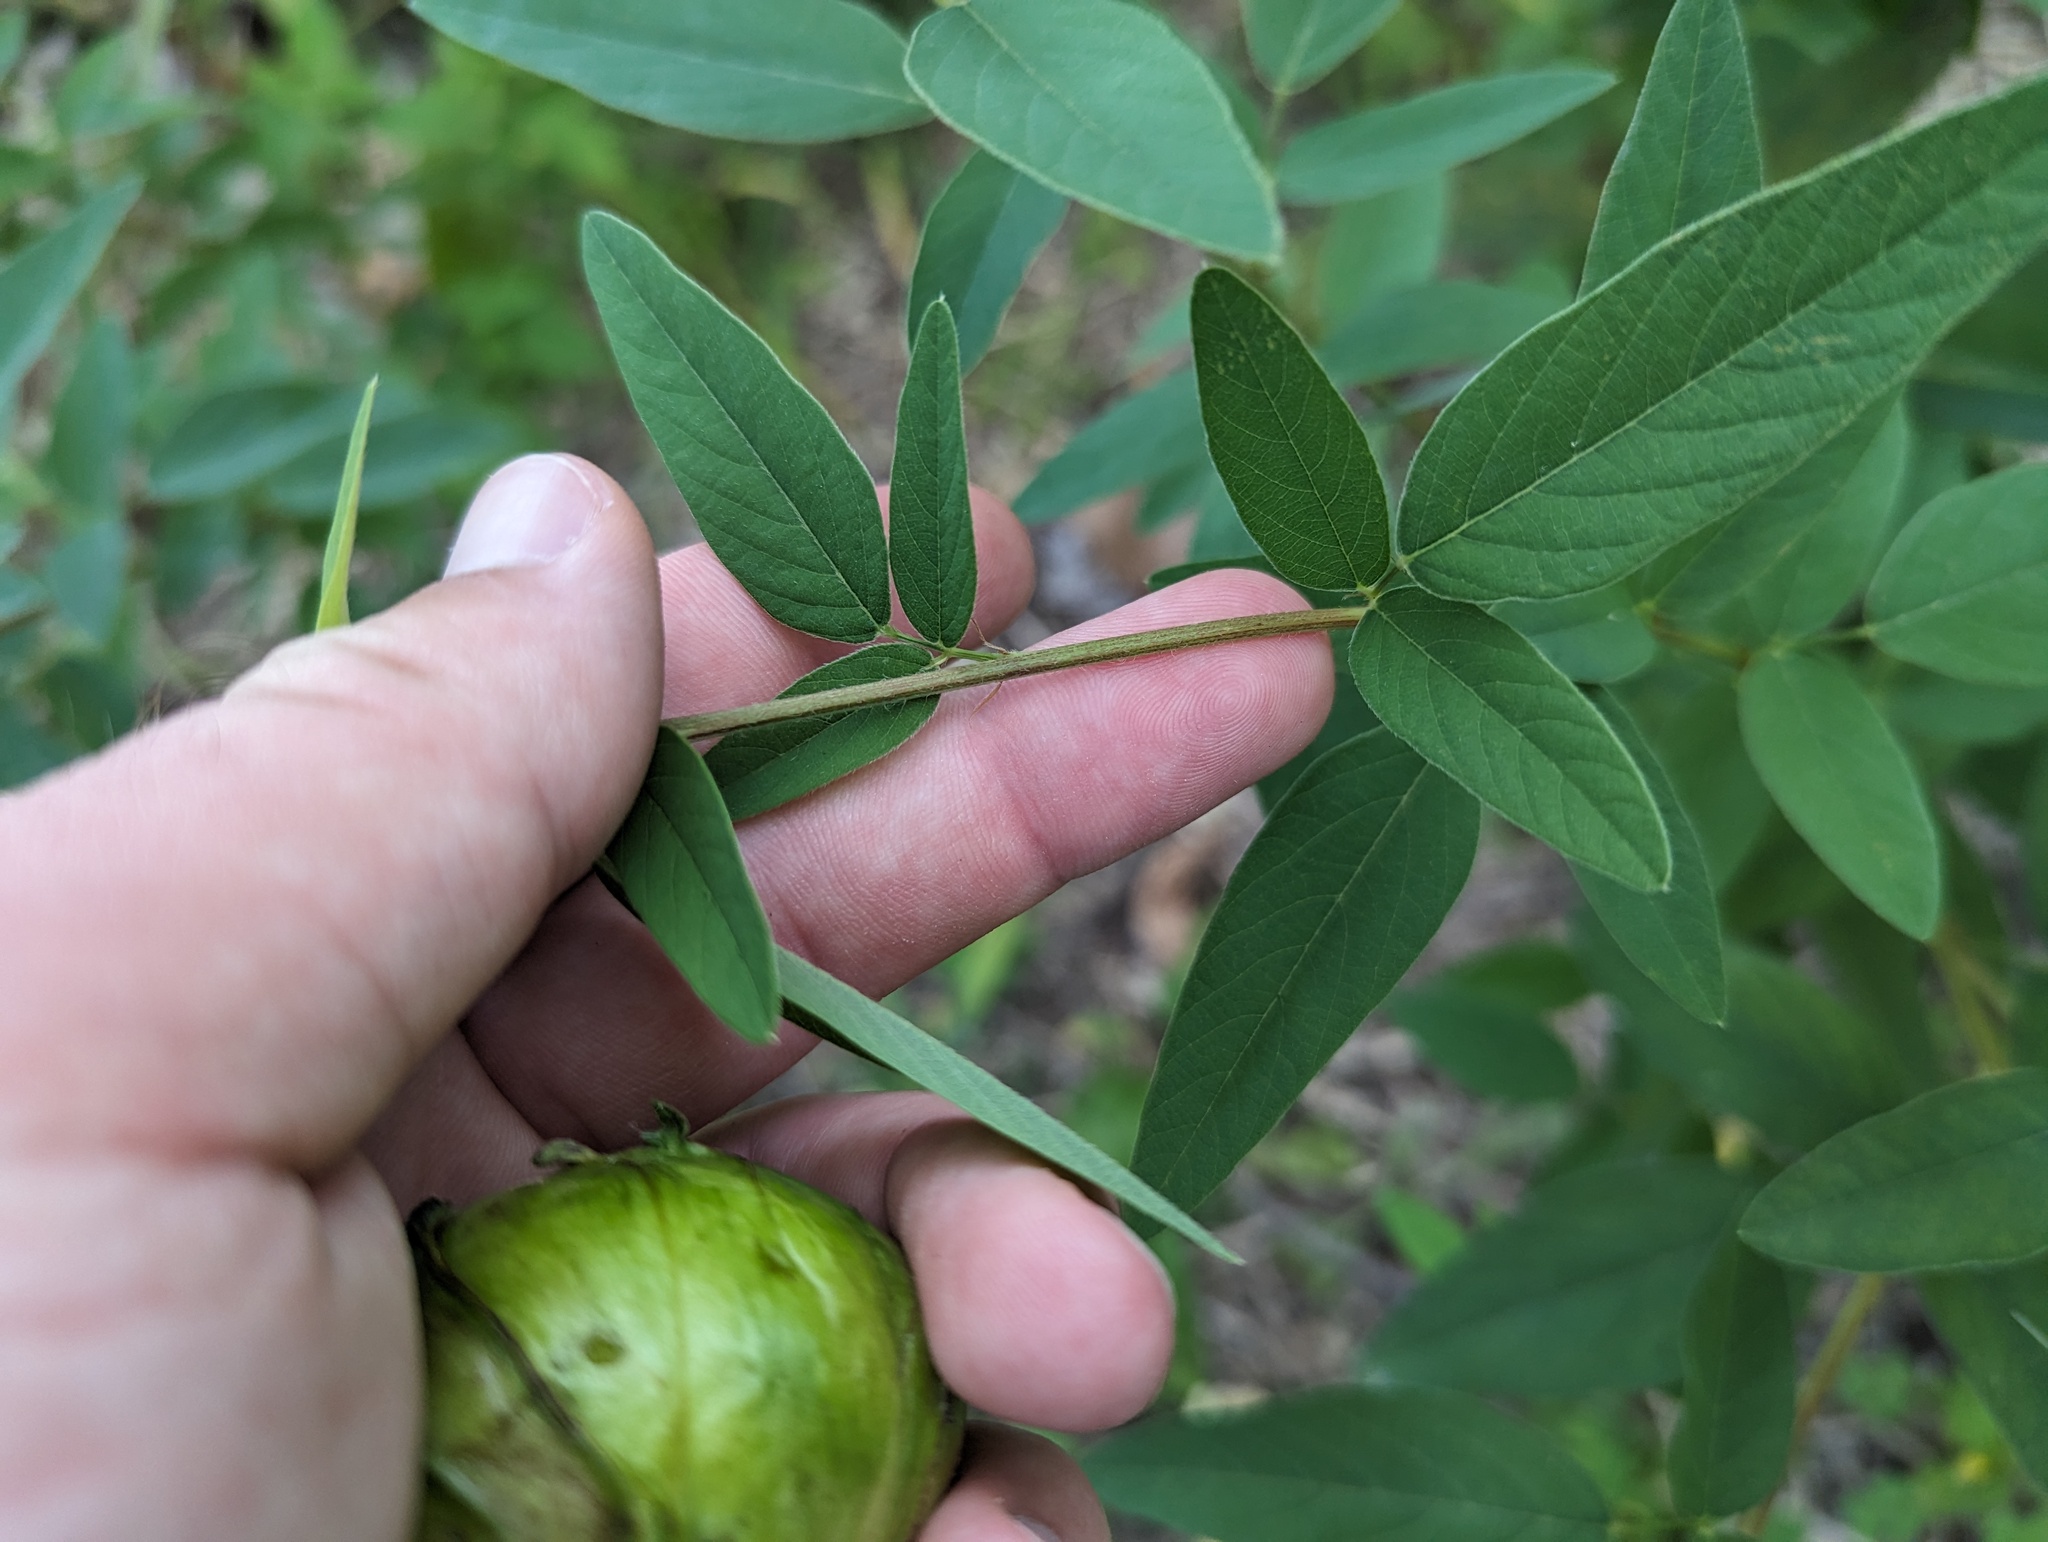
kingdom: Plantae
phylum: Tracheophyta
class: Magnoliopsida
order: Fabales
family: Fabaceae
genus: Desmodium
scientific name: Desmodium canadense
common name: Canada tick-trefoil
